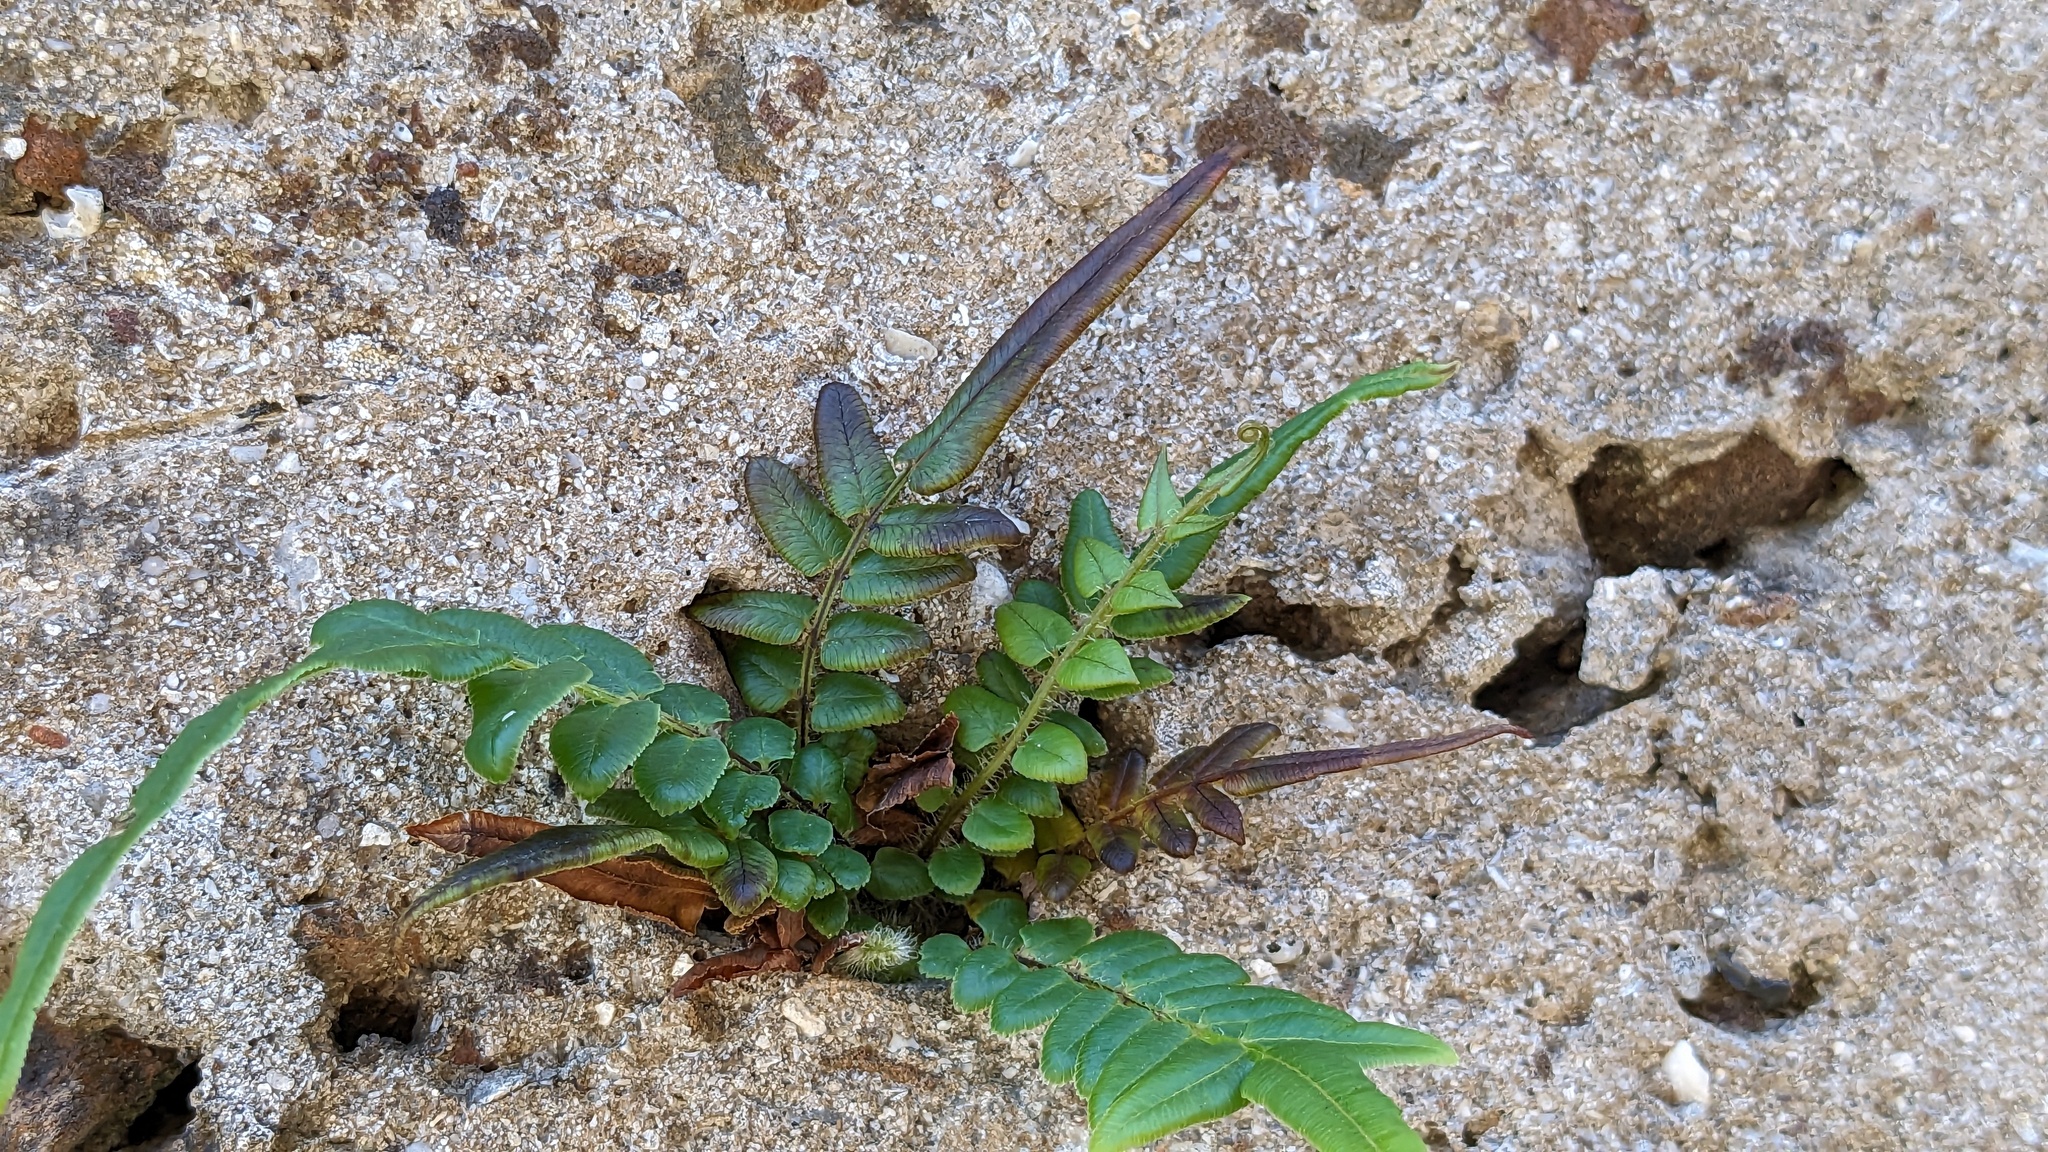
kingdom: Plantae
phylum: Tracheophyta
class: Polypodiopsida
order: Polypodiales
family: Pteridaceae
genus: Pteris
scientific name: Pteris vittata
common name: Ladder brake
